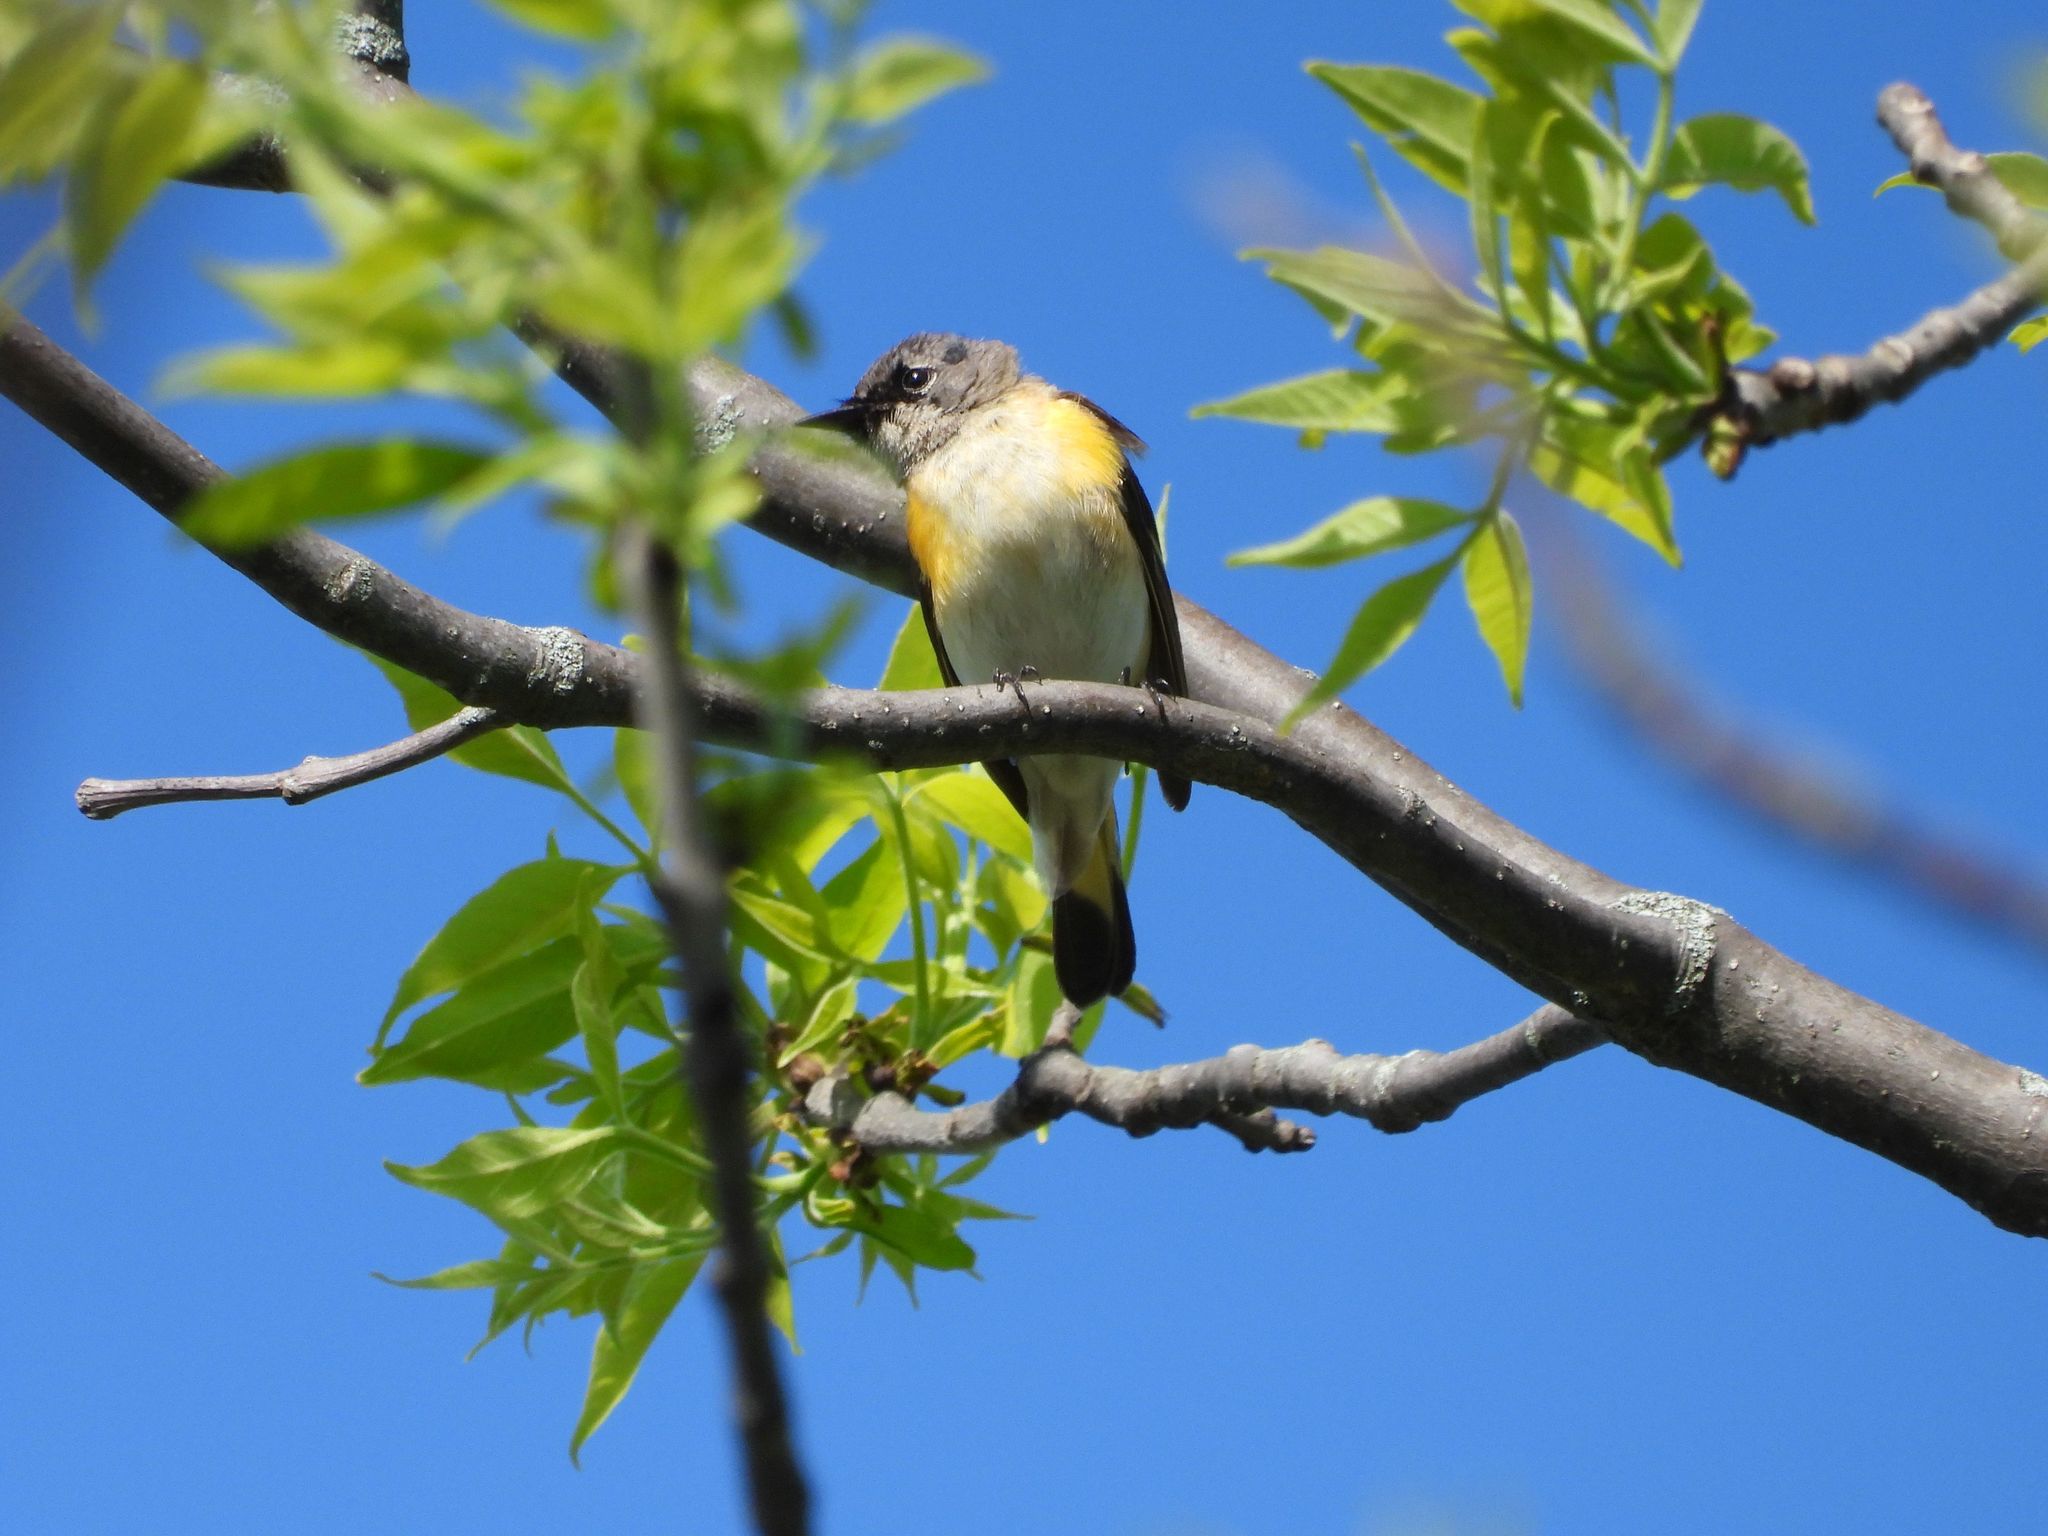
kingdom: Animalia
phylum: Chordata
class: Aves
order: Passeriformes
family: Parulidae
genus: Setophaga
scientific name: Setophaga ruticilla
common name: American redstart
